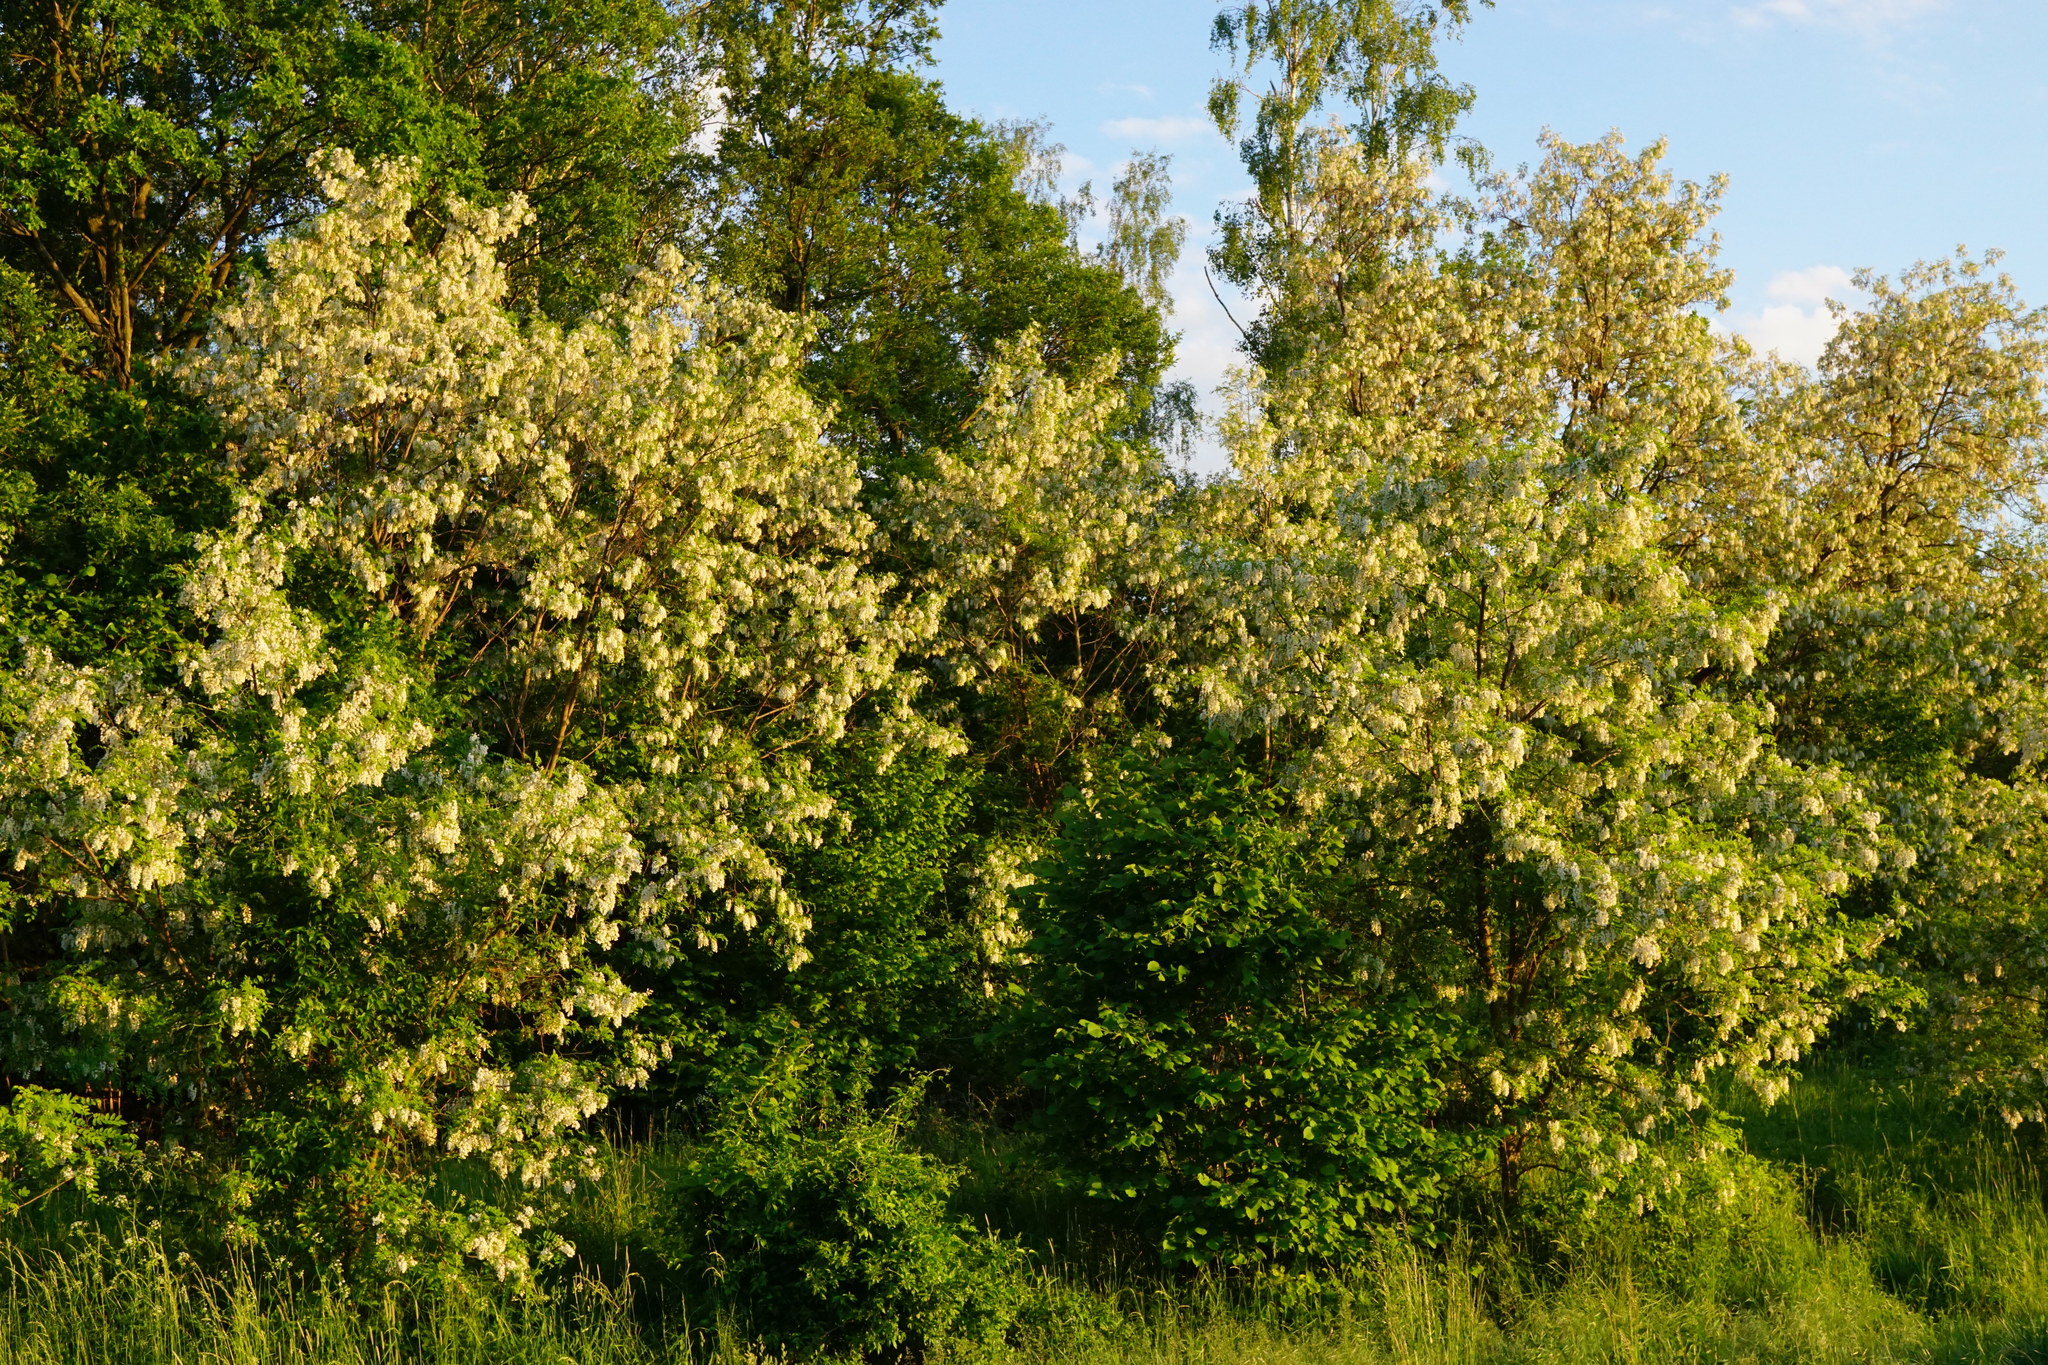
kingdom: Plantae
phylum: Tracheophyta
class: Magnoliopsida
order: Fabales
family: Fabaceae
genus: Robinia
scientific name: Robinia pseudoacacia
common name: Black locust
